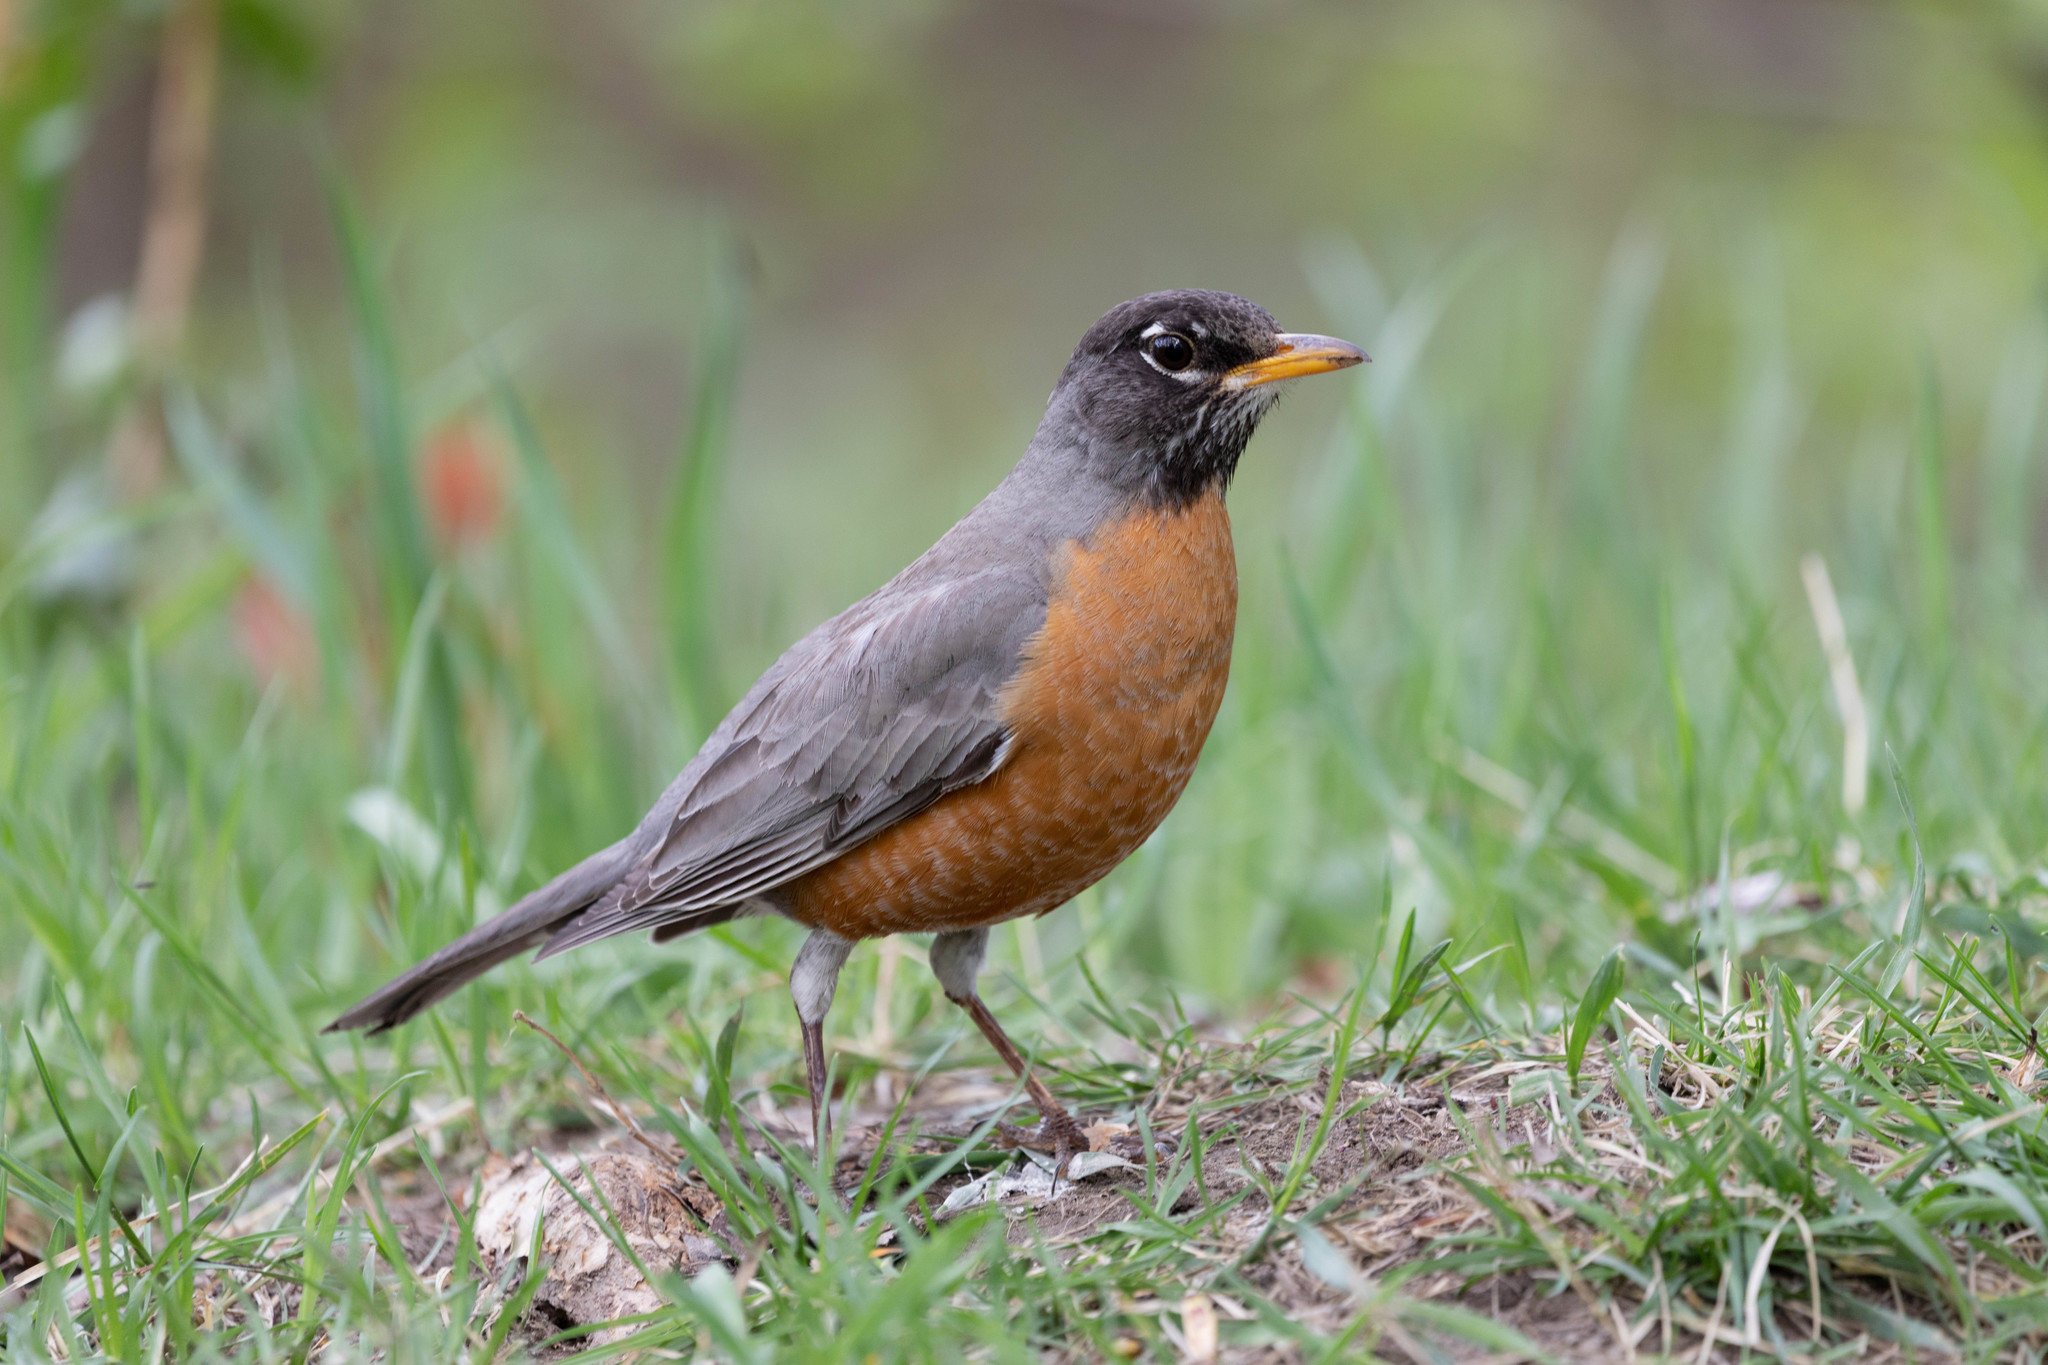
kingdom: Animalia
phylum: Chordata
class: Aves
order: Passeriformes
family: Turdidae
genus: Turdus
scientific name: Turdus migratorius
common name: American robin
